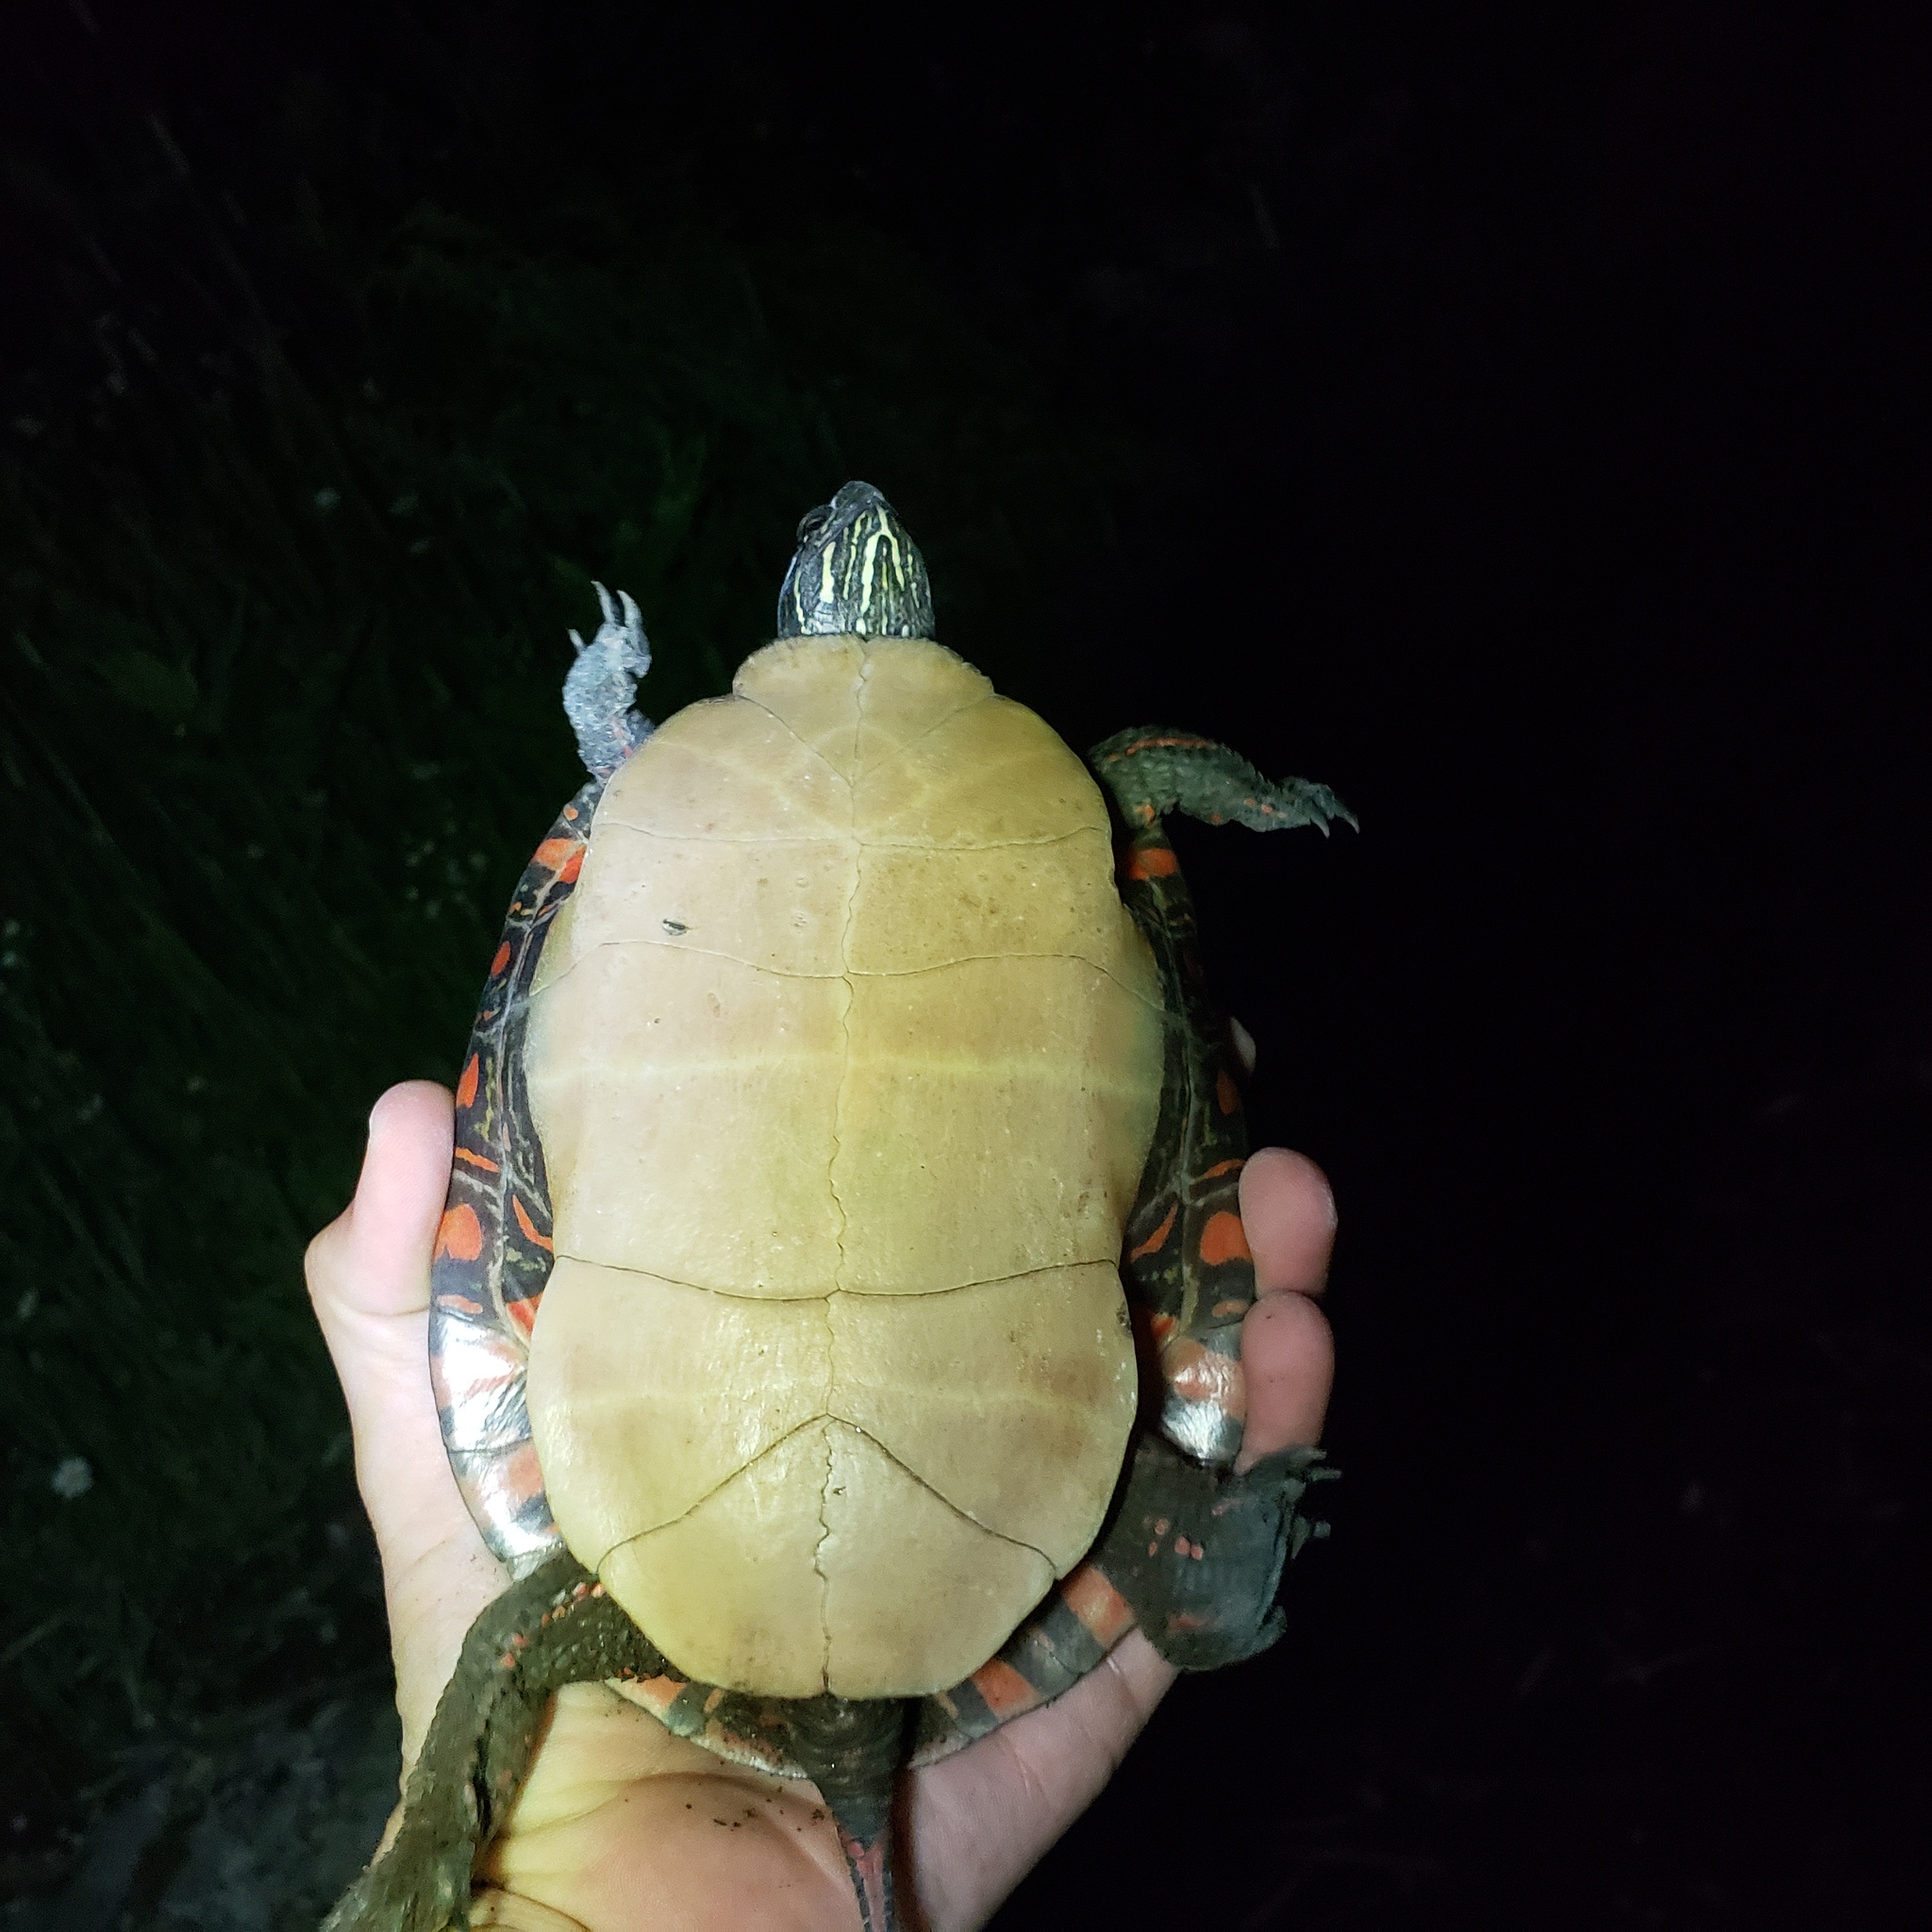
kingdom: Animalia
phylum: Chordata
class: Testudines
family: Emydidae
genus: Chrysemys
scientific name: Chrysemys picta
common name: Painted turtle
